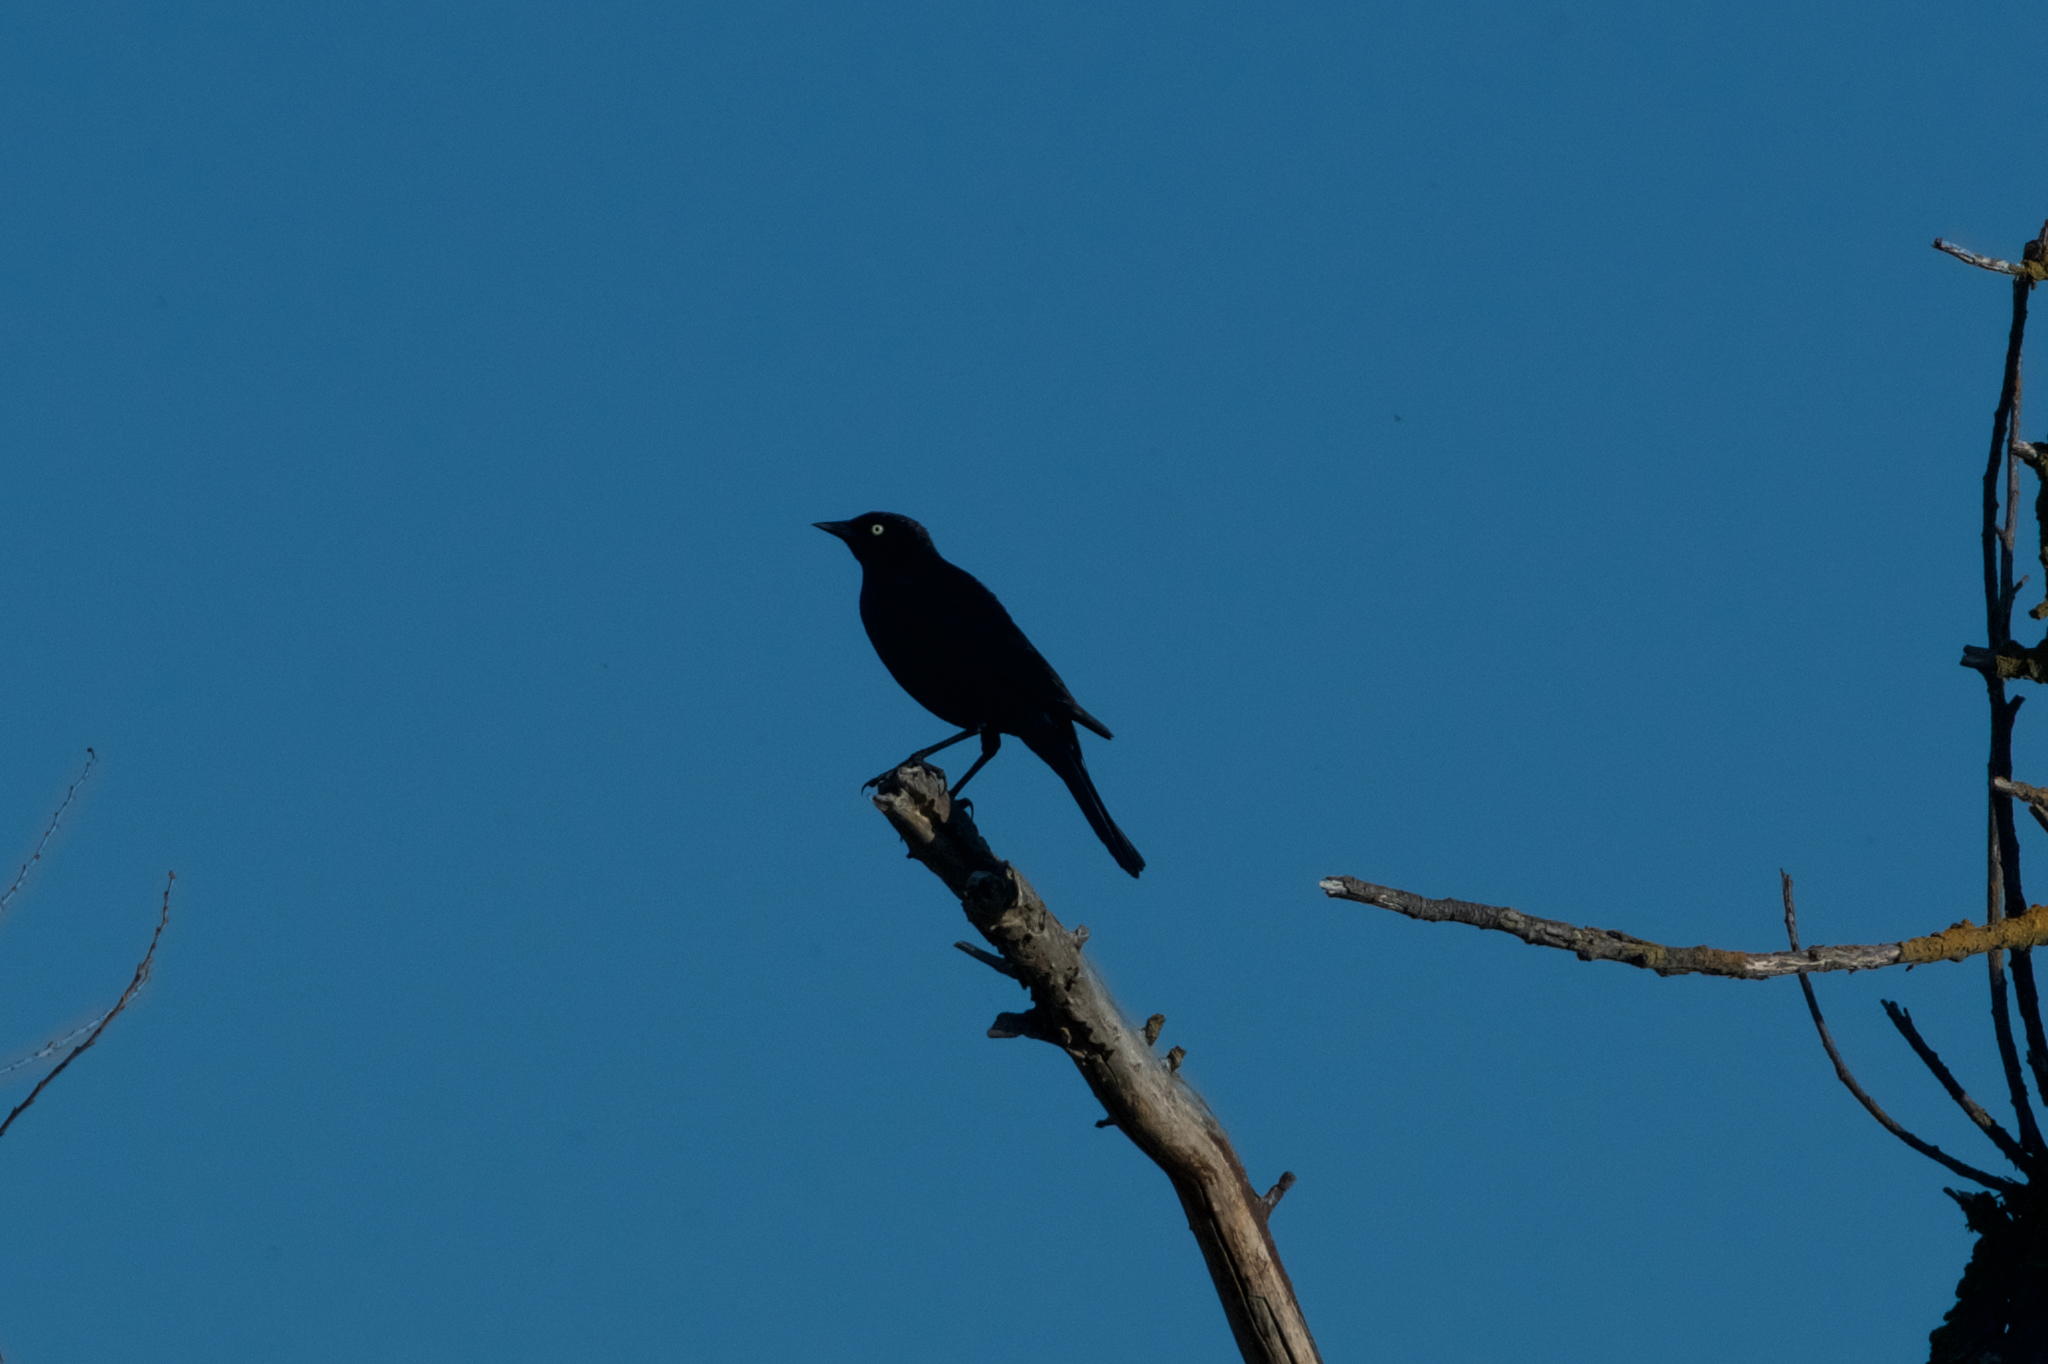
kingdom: Animalia
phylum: Chordata
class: Aves
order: Passeriformes
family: Icteridae
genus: Euphagus
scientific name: Euphagus cyanocephalus
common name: Brewer's blackbird
